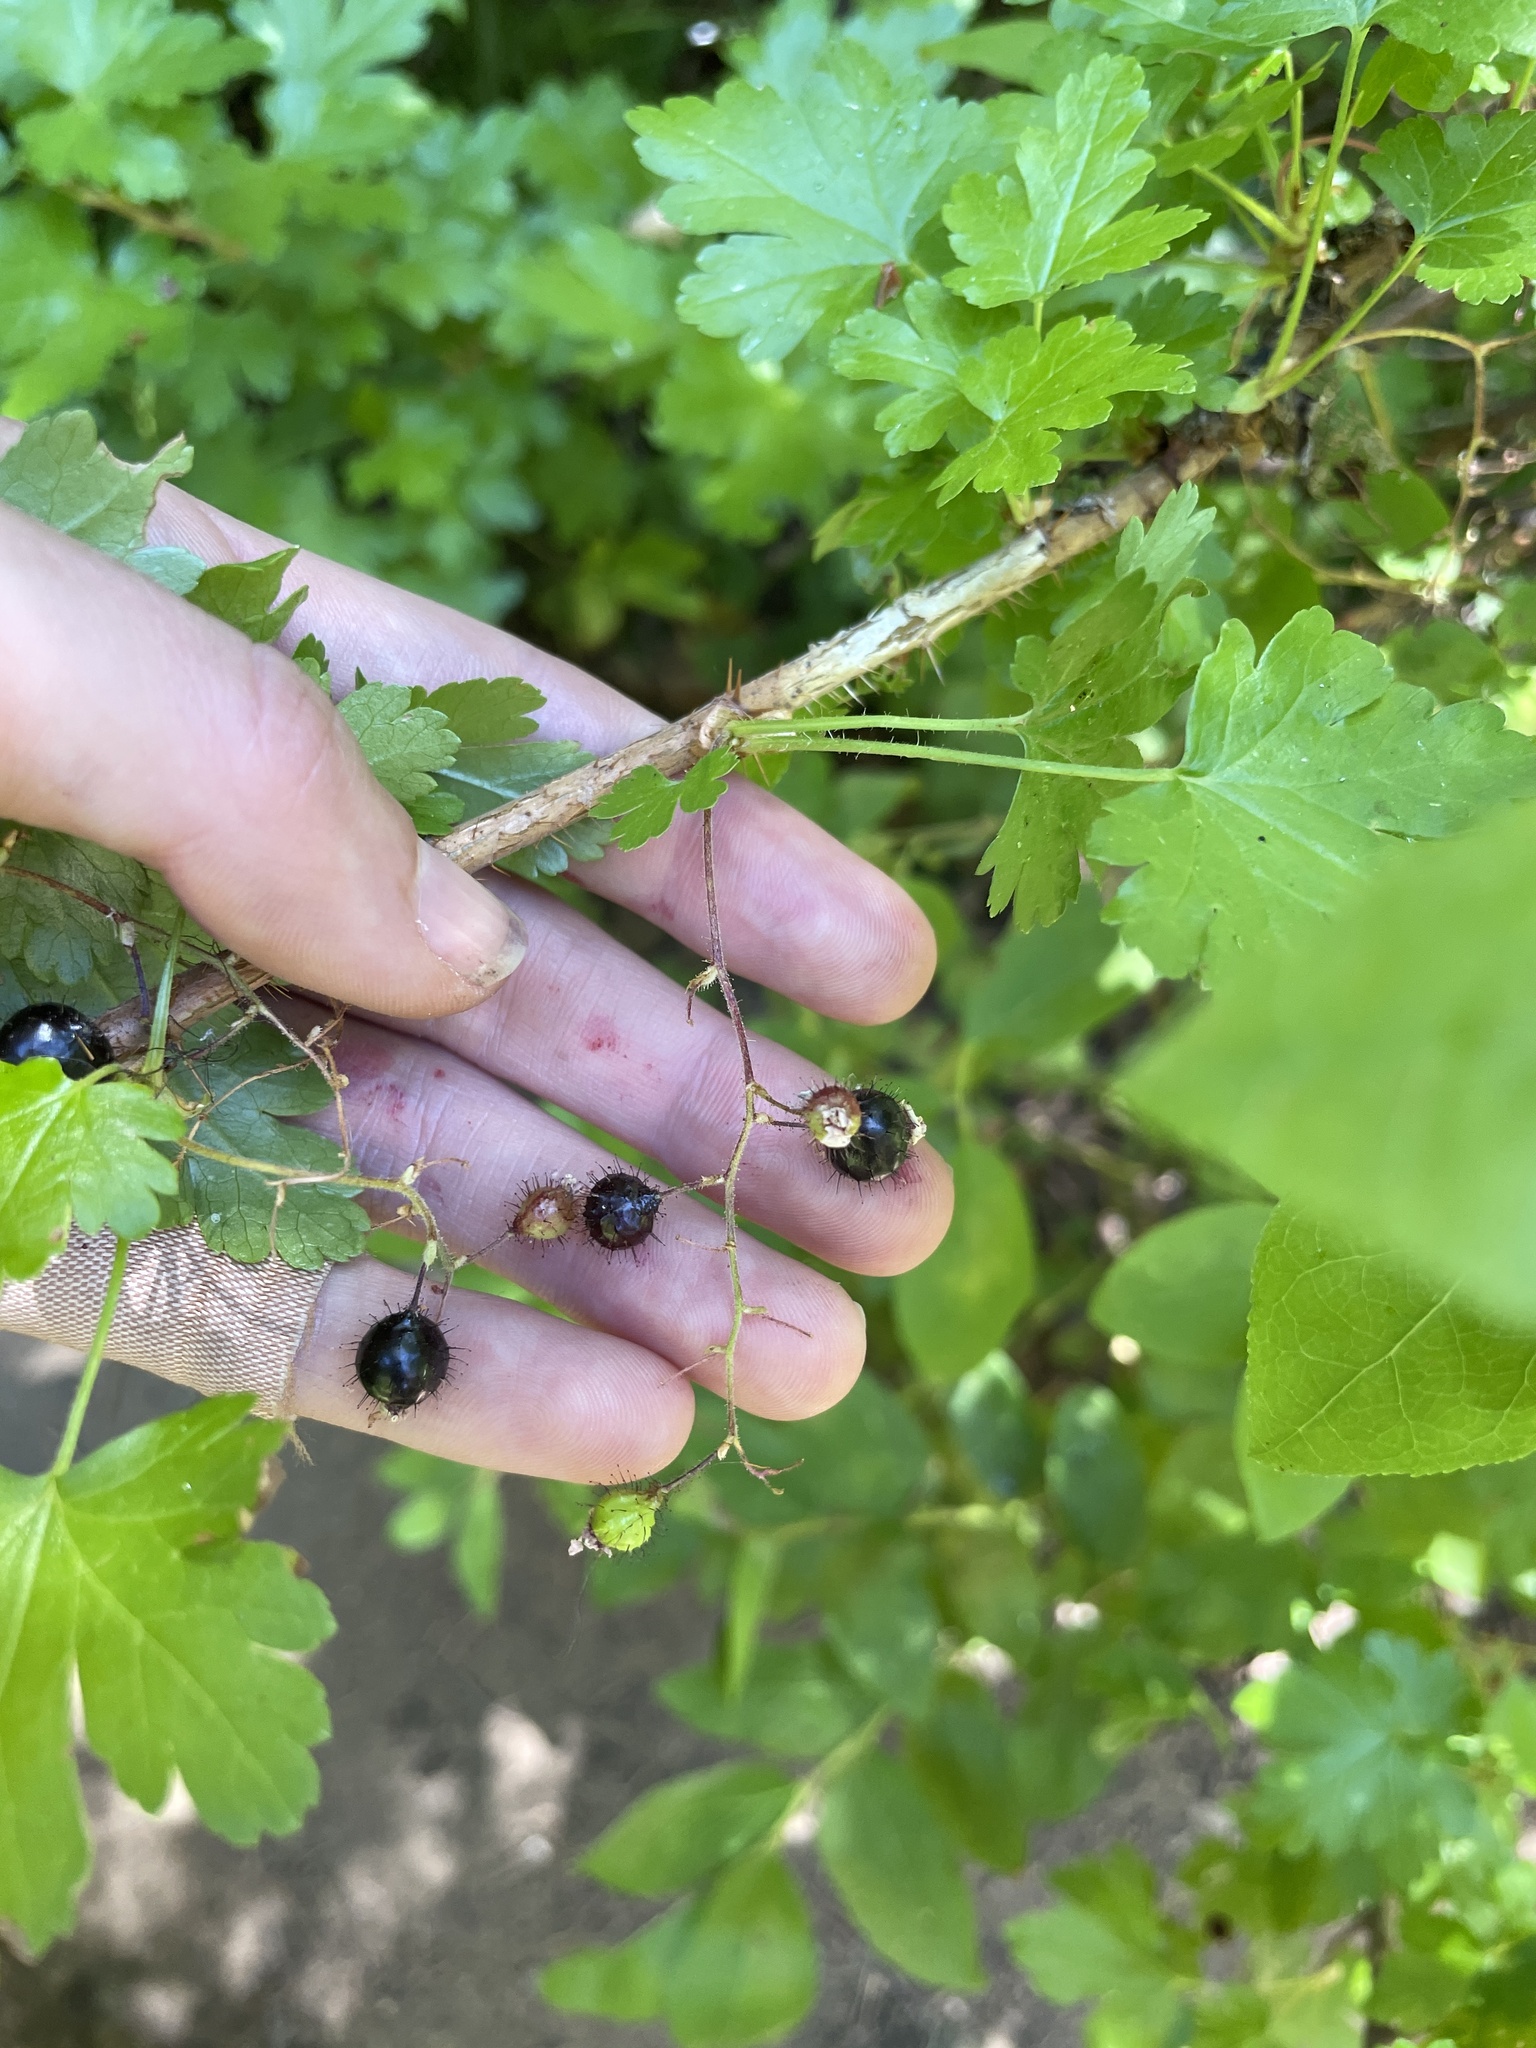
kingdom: Plantae
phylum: Tracheophyta
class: Magnoliopsida
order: Saxifragales
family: Grossulariaceae
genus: Ribes
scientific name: Ribes lacustre
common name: Black gooseberry
